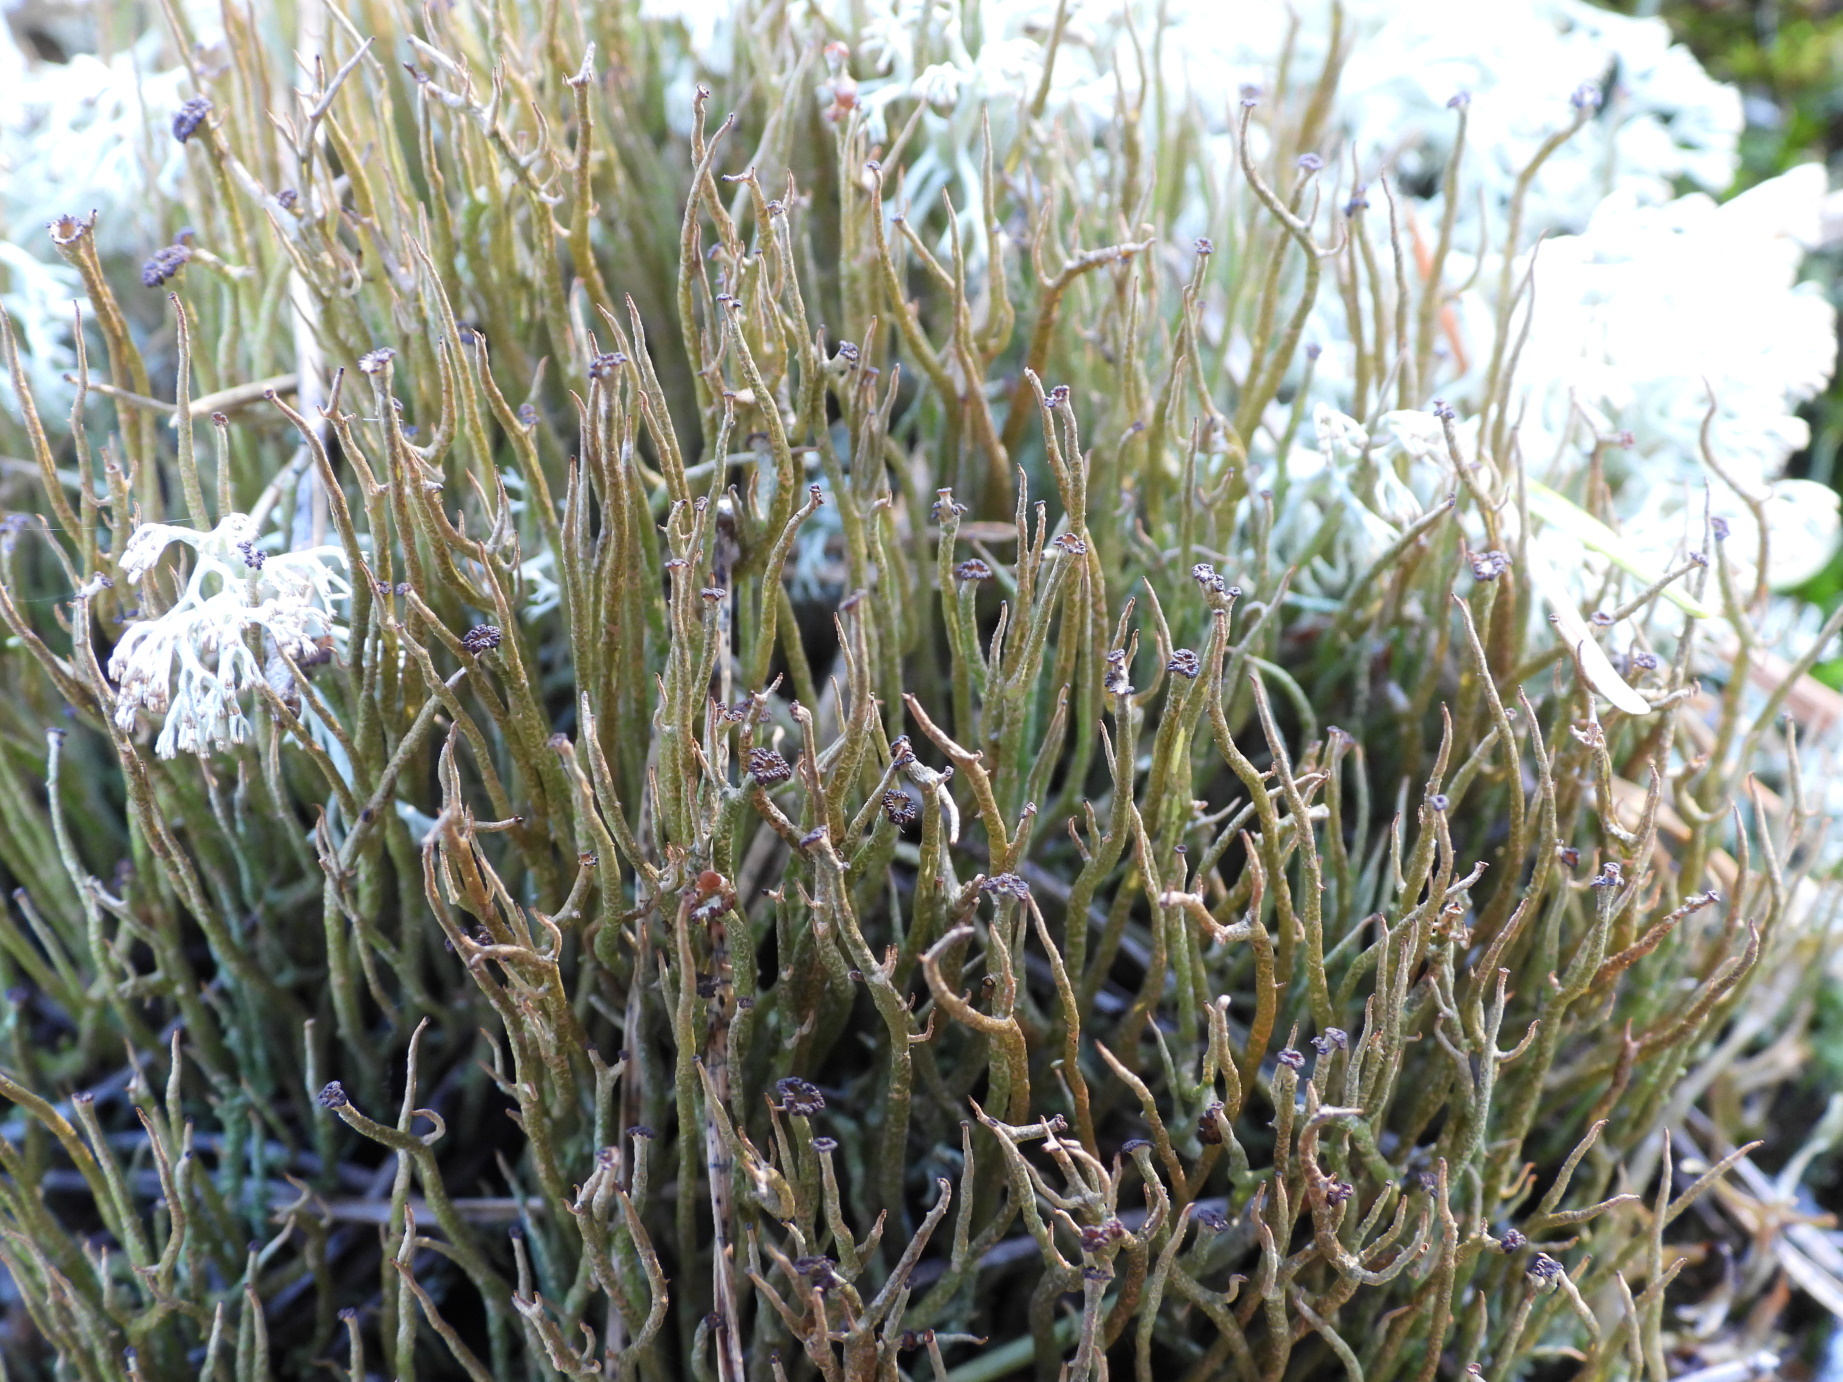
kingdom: Fungi
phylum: Ascomycota
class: Lecanoromycetes
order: Lecanorales
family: Cladoniaceae
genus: Cladonia
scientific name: Cladonia gracilis
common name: Smooth clad lichen
